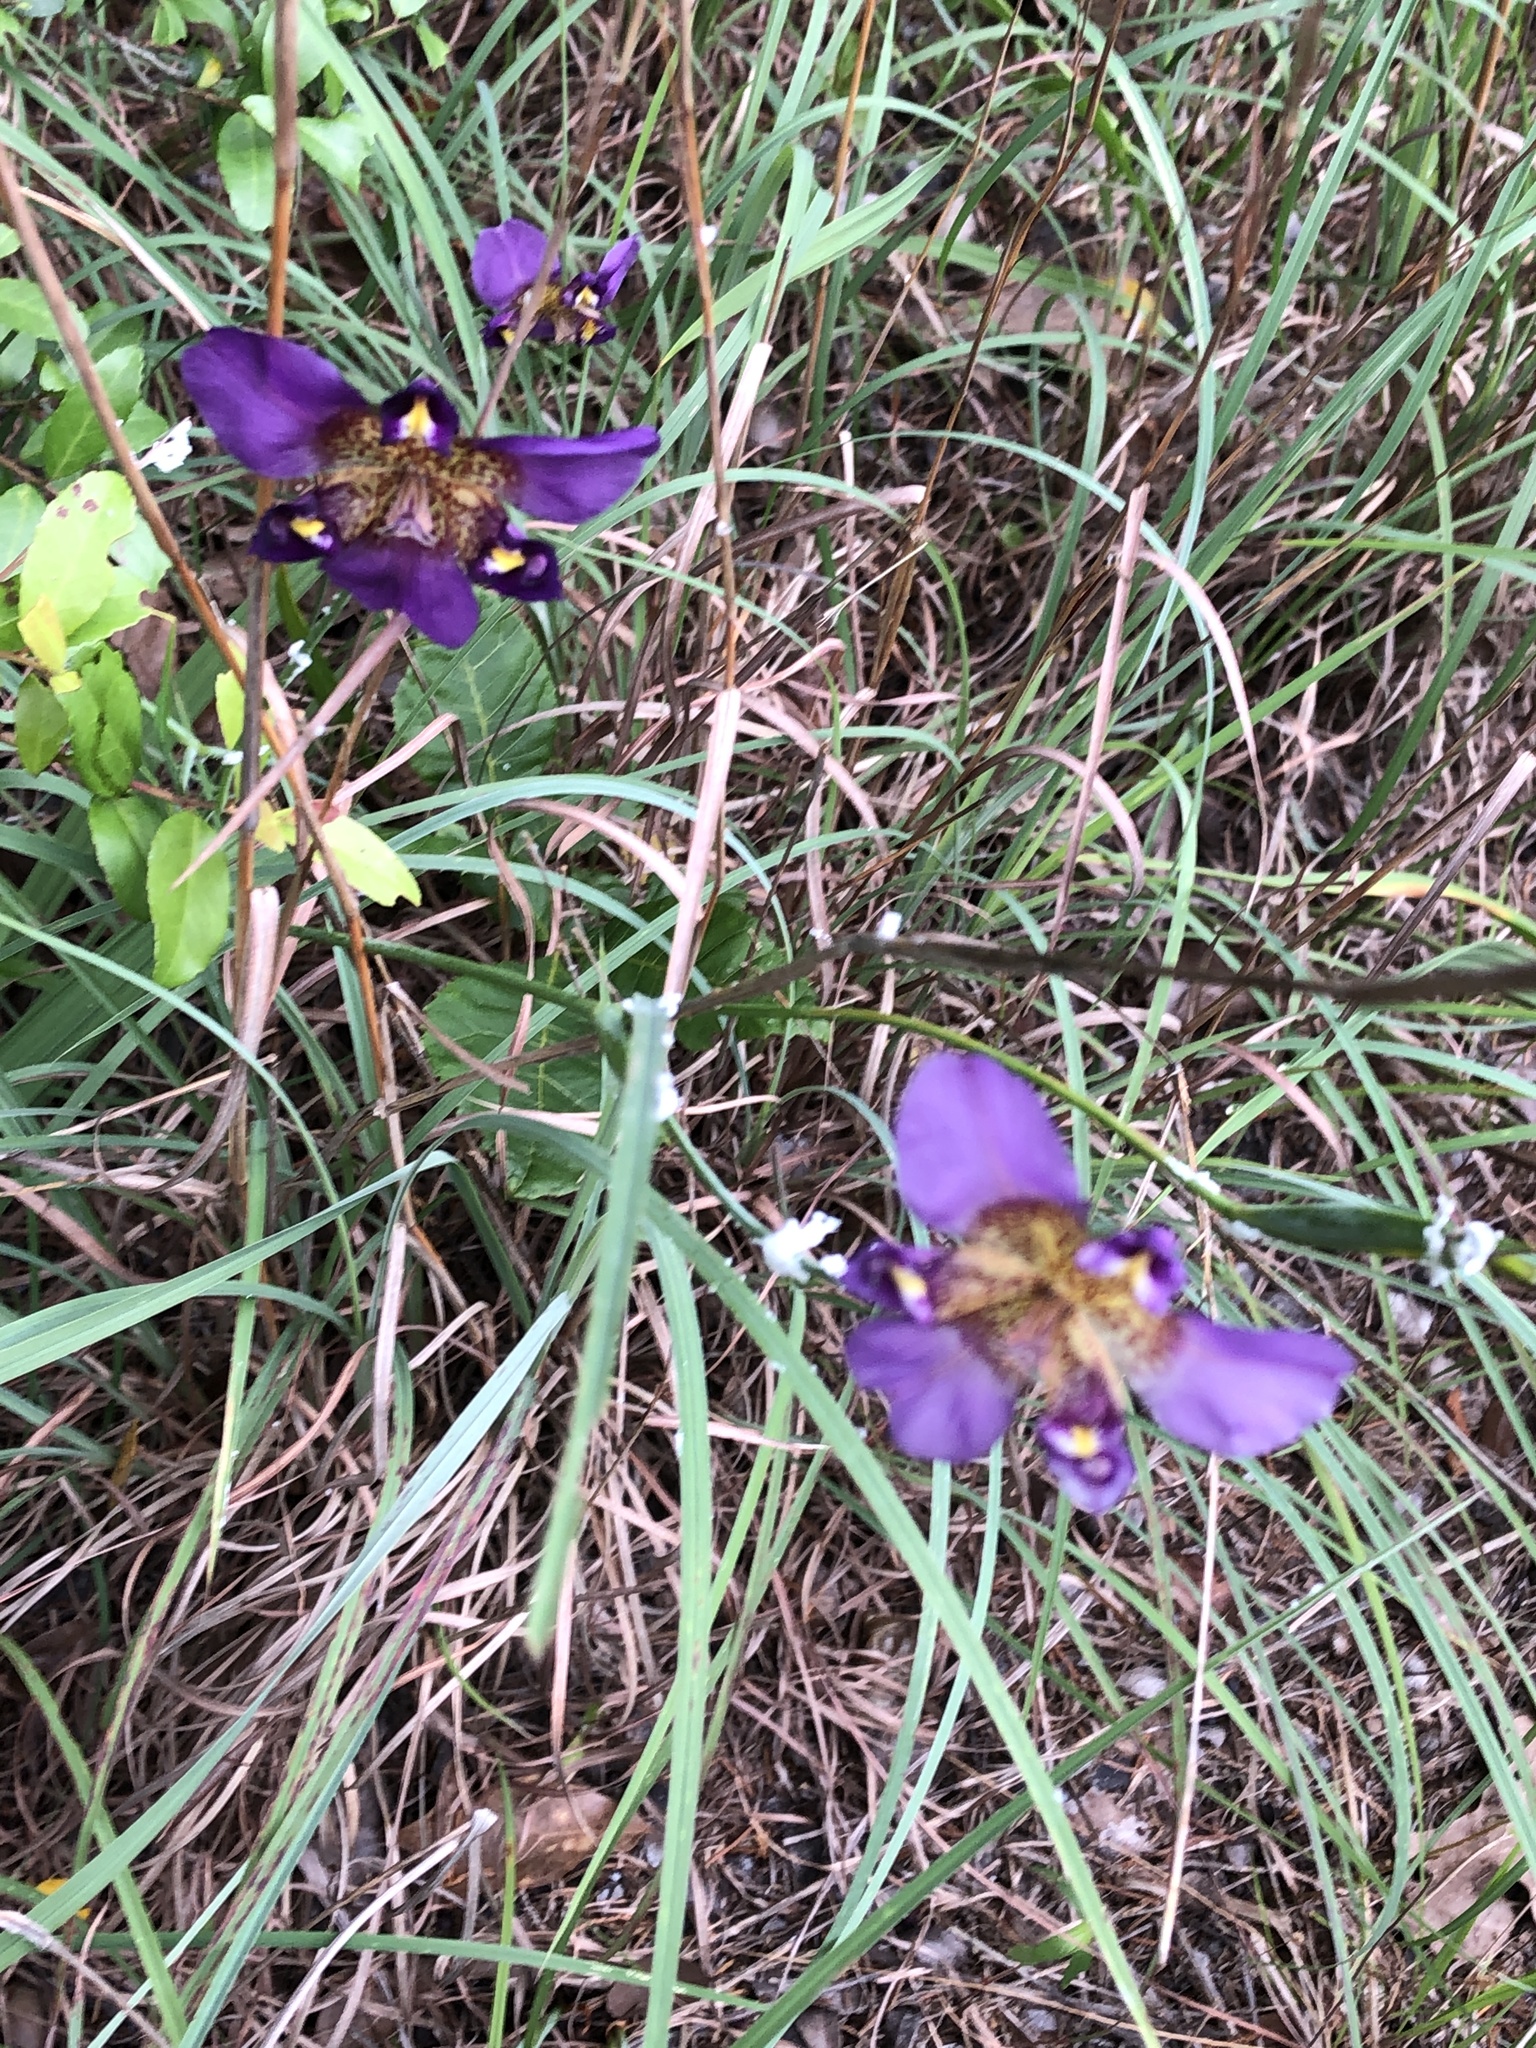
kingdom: Plantae
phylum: Tracheophyta
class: Liliopsida
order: Asparagales
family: Iridaceae
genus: Alophia
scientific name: Alophia drummondii
